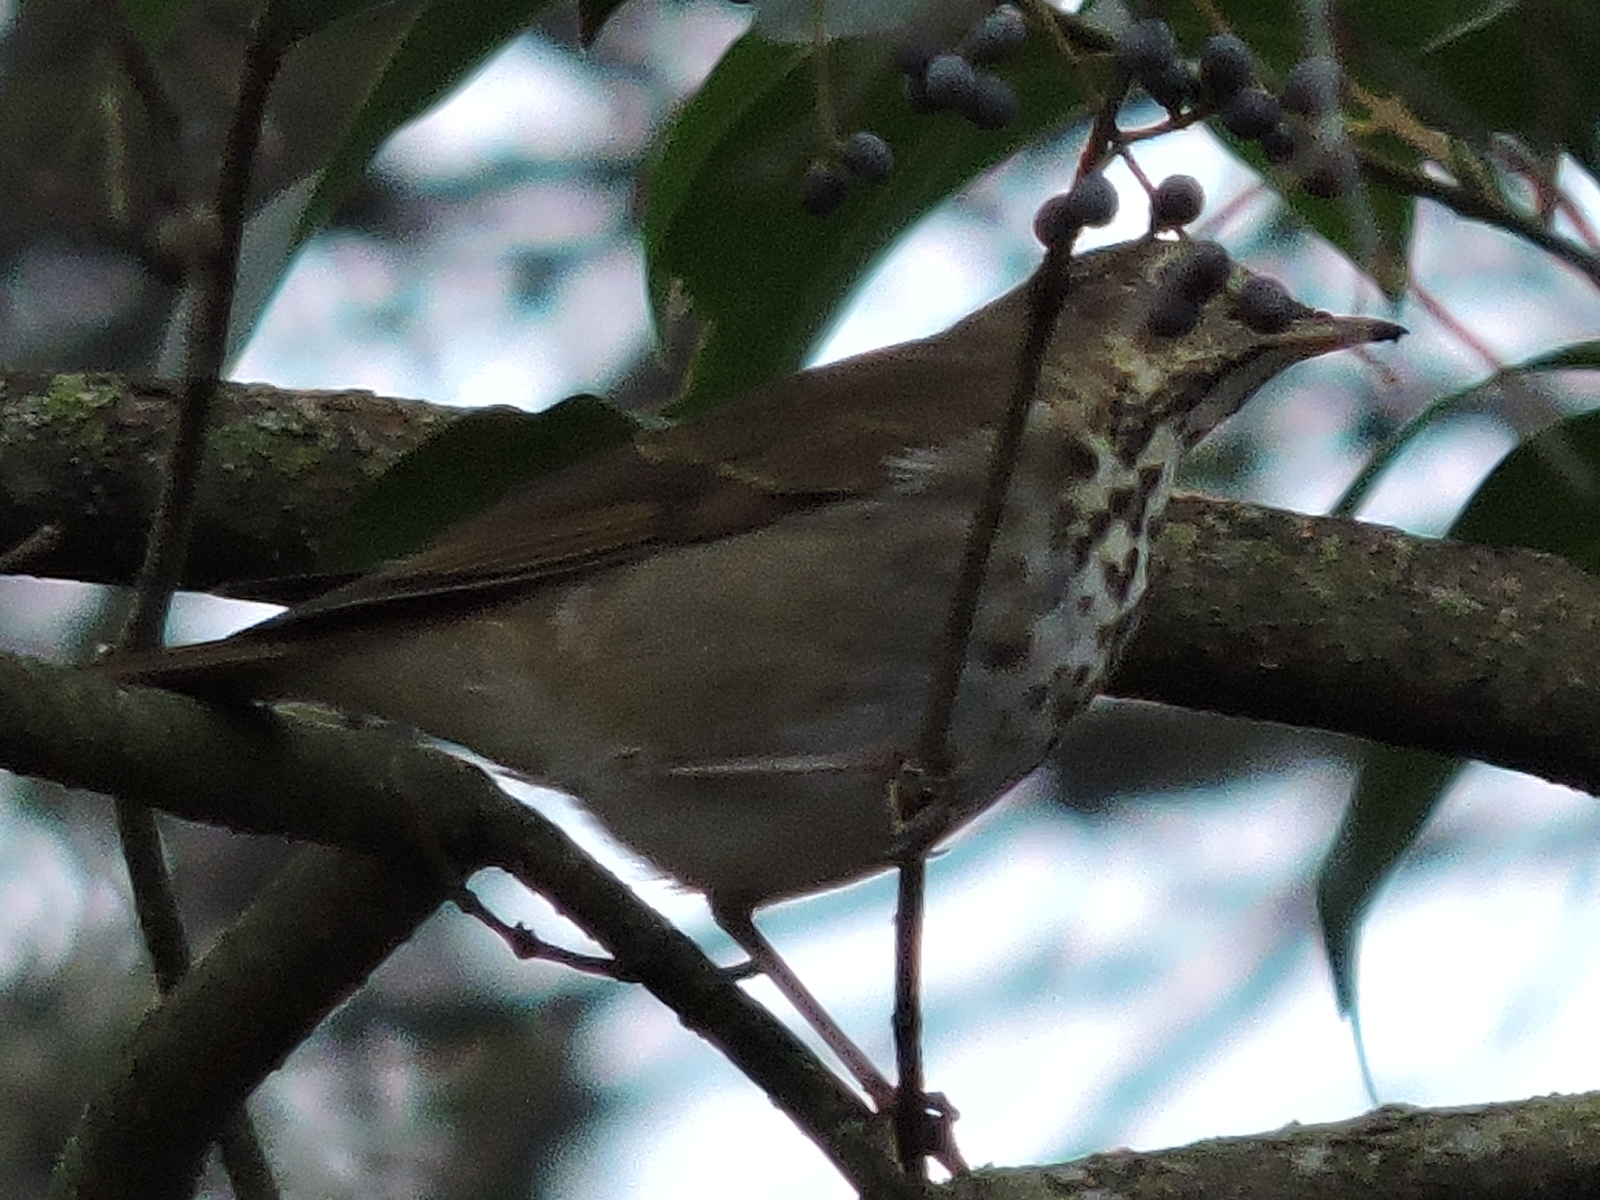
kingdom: Animalia
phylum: Chordata
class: Aves
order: Passeriformes
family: Turdidae
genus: Catharus
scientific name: Catharus guttatus
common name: Hermit thrush
